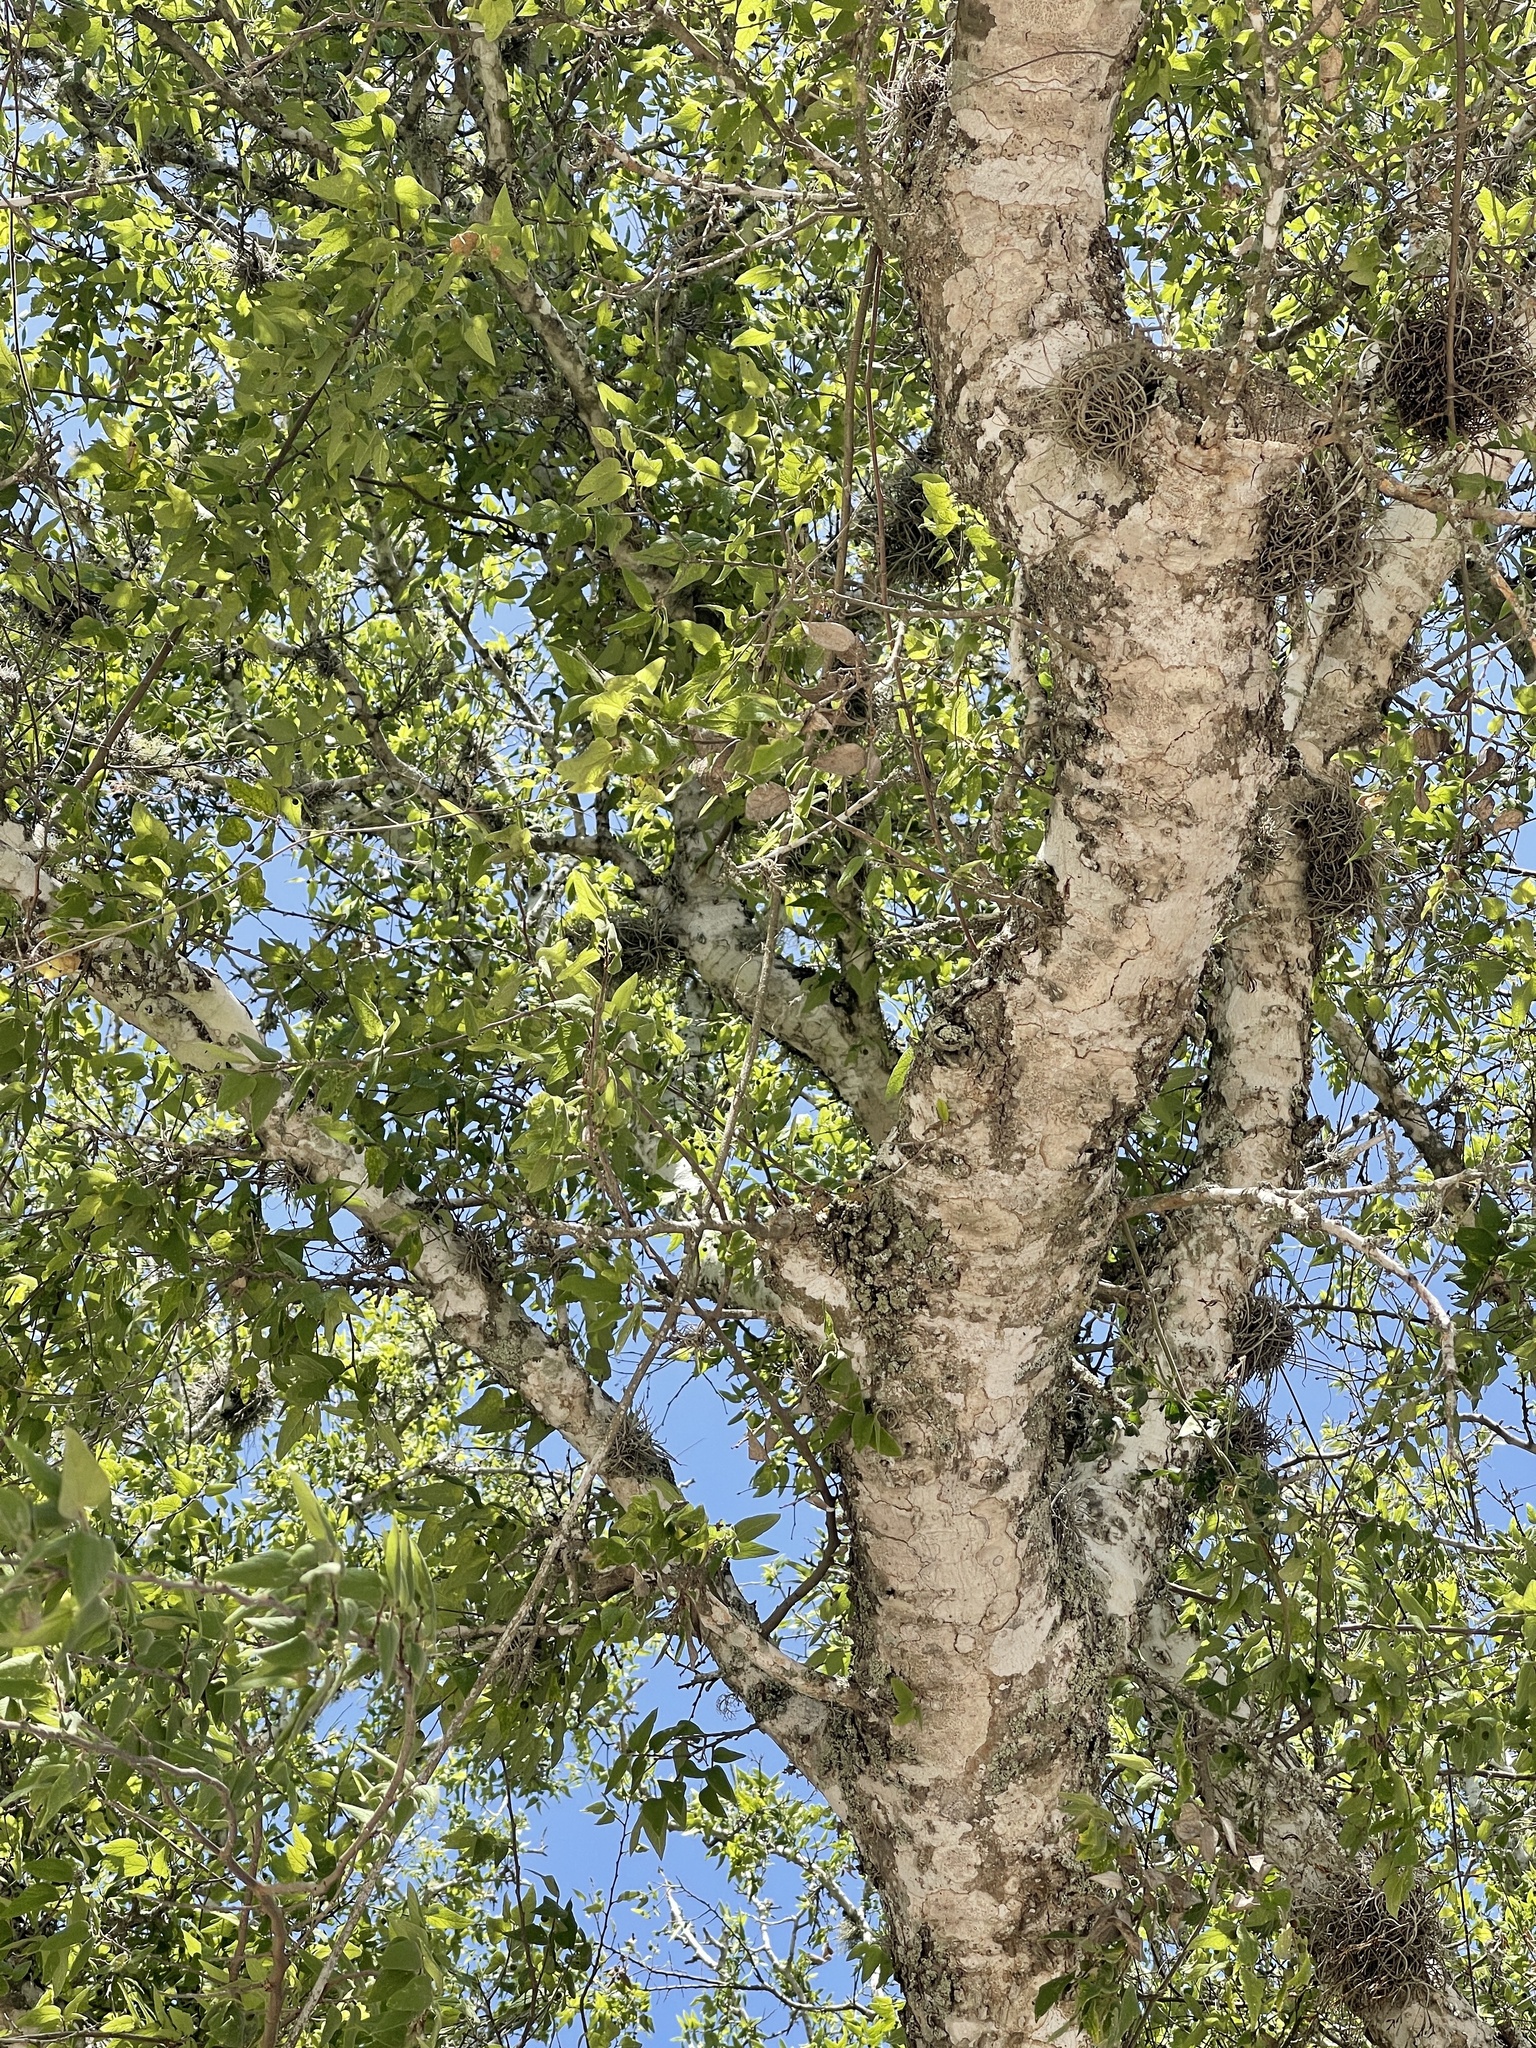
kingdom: Plantae
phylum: Tracheophyta
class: Magnoliopsida
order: Rosales
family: Cannabaceae
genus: Celtis
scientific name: Celtis laevigata
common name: Sugarberry
